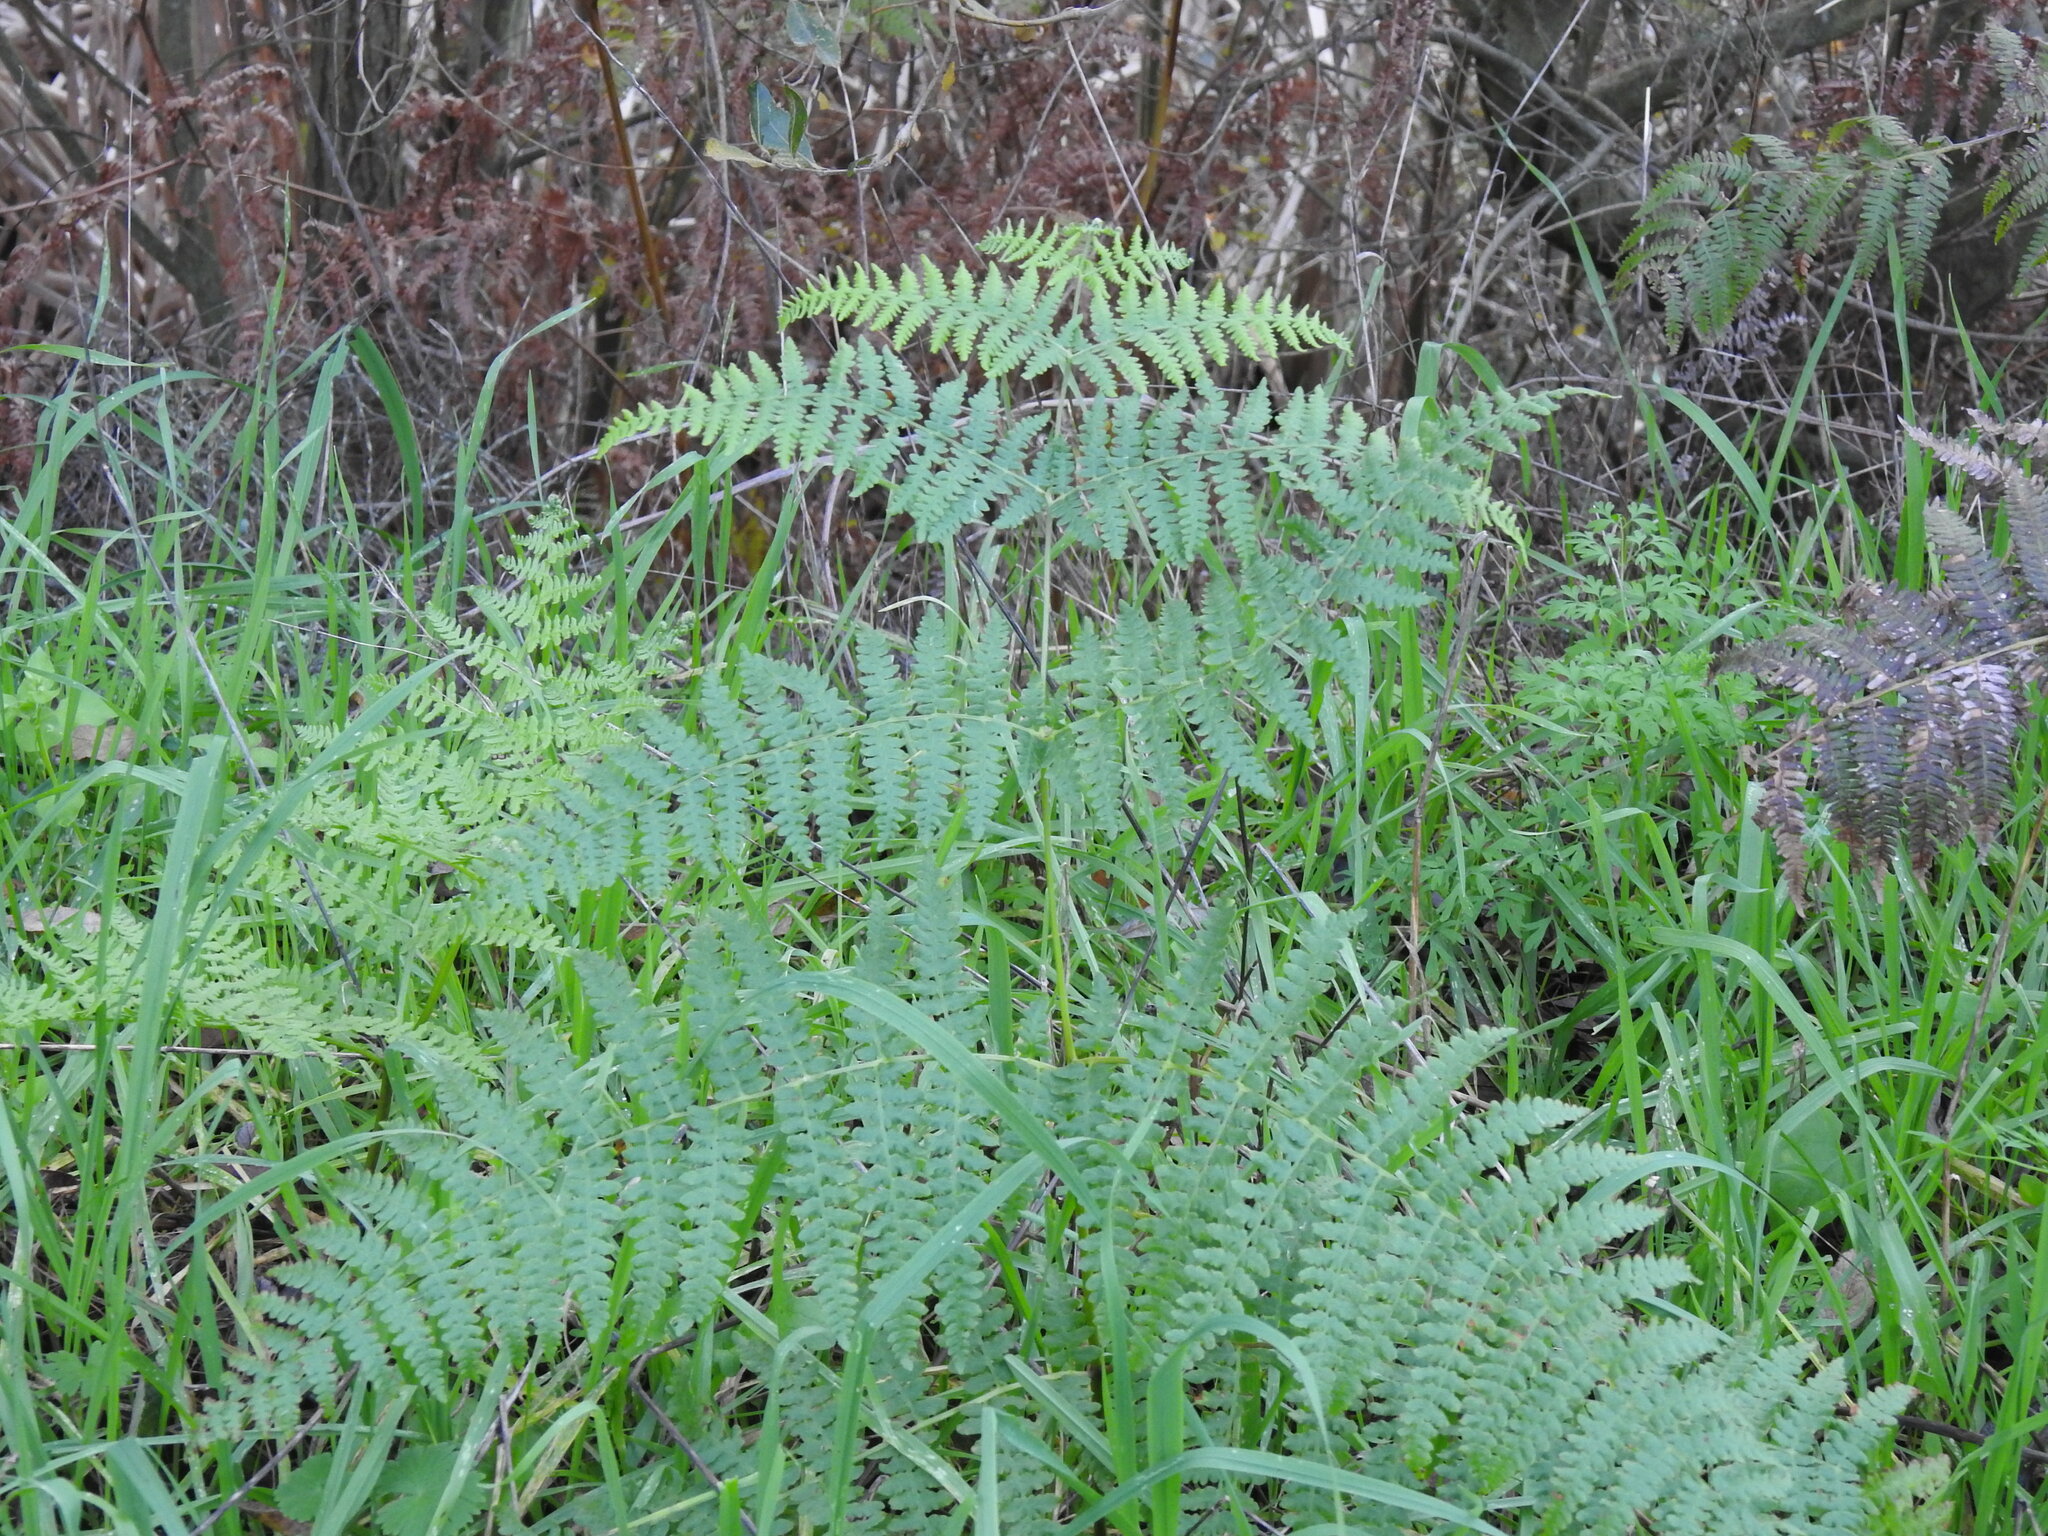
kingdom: Plantae
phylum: Tracheophyta
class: Polypodiopsida
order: Polypodiales
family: Dennstaedtiaceae
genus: Pteridium
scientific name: Pteridium aquilinum
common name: Bracken
